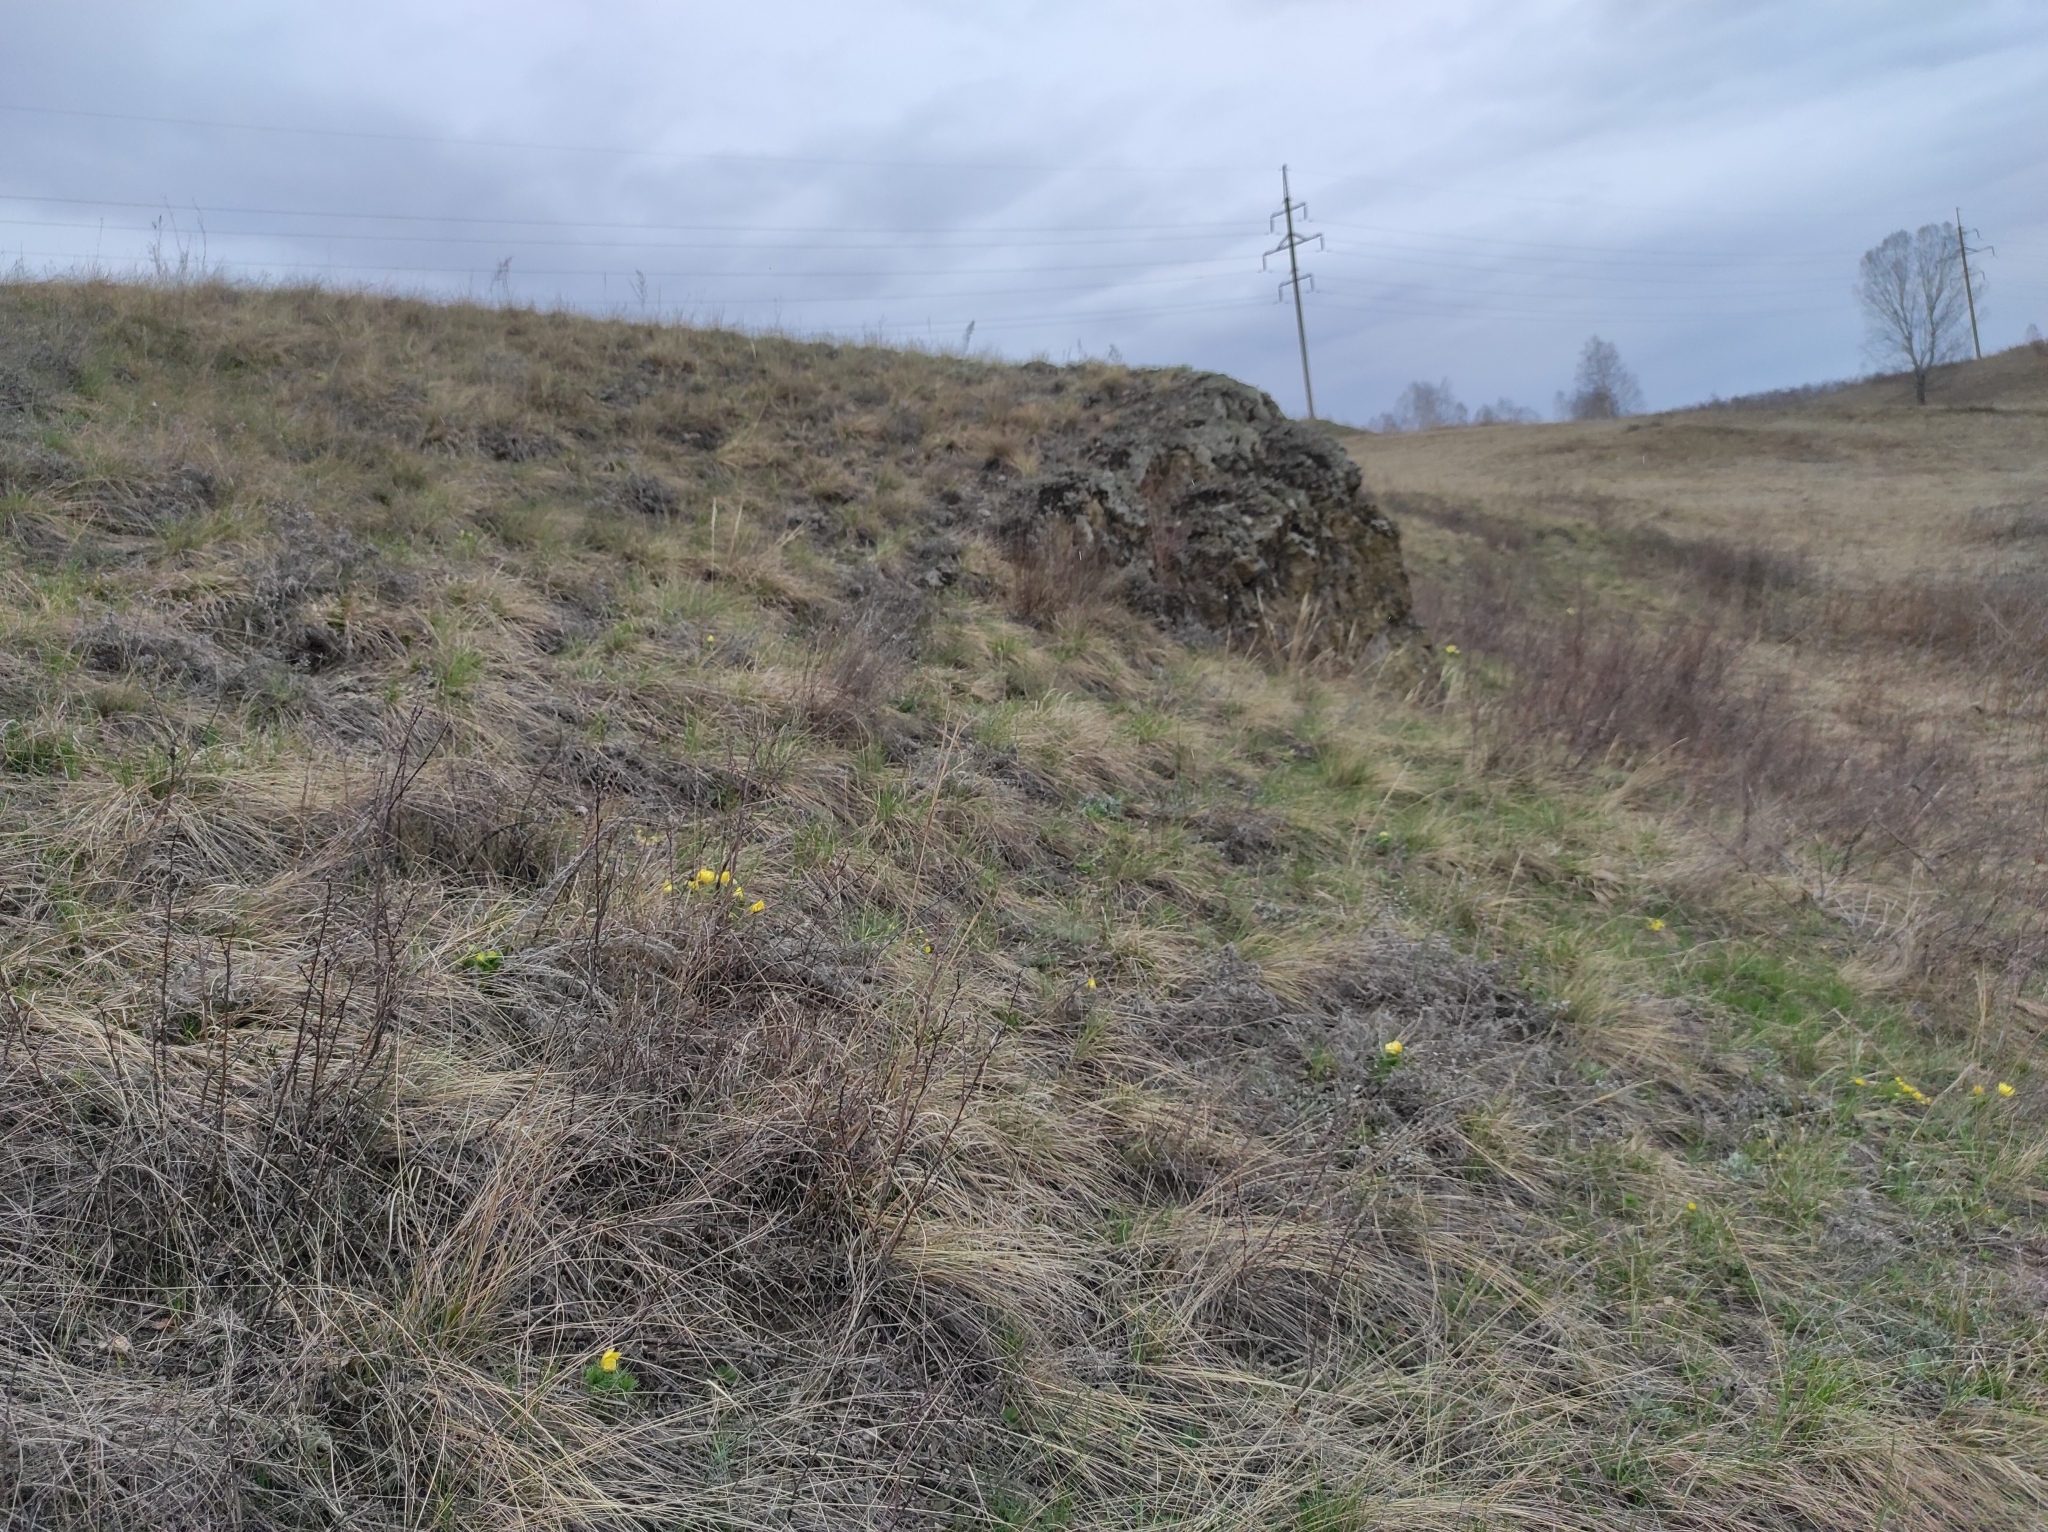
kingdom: Plantae
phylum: Tracheophyta
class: Magnoliopsida
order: Ranunculales
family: Ranunculaceae
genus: Adonis
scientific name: Adonis vernalis
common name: Yellow pheasants-eye
